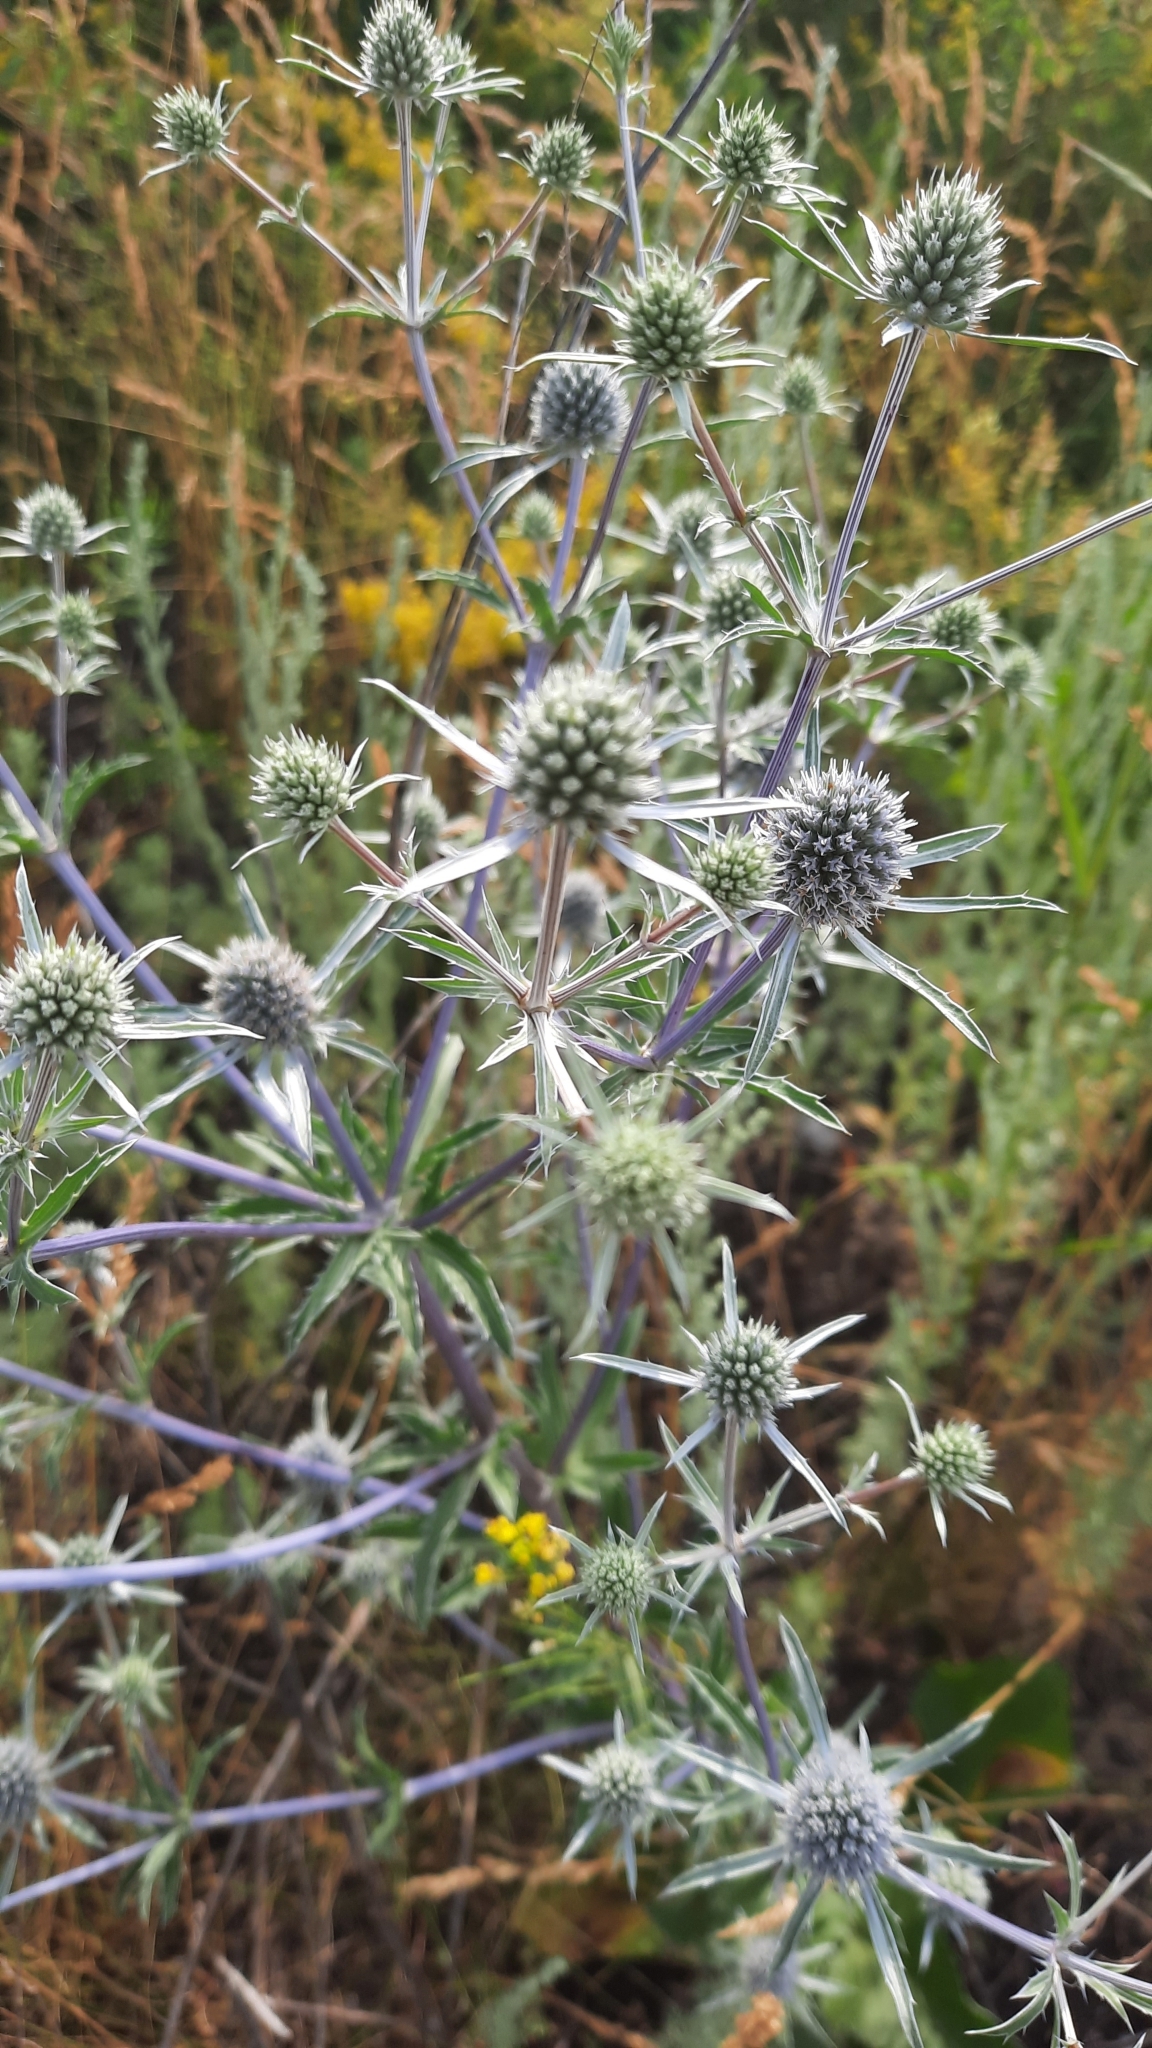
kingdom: Plantae
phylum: Tracheophyta
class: Magnoliopsida
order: Apiales
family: Apiaceae
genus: Eryngium
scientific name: Eryngium planum
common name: Blue eryngo
